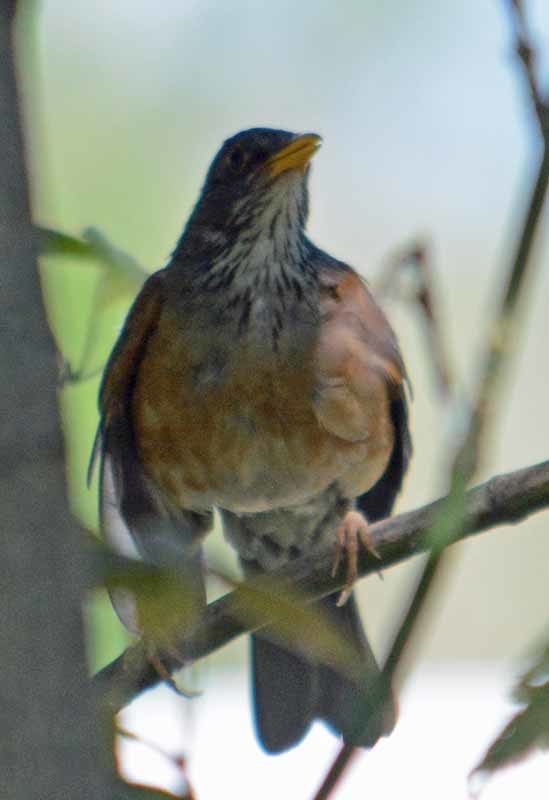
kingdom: Animalia
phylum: Chordata
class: Aves
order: Passeriformes
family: Turdidae
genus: Turdus
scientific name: Turdus rufopalliatus
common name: Rufous-backed robin
